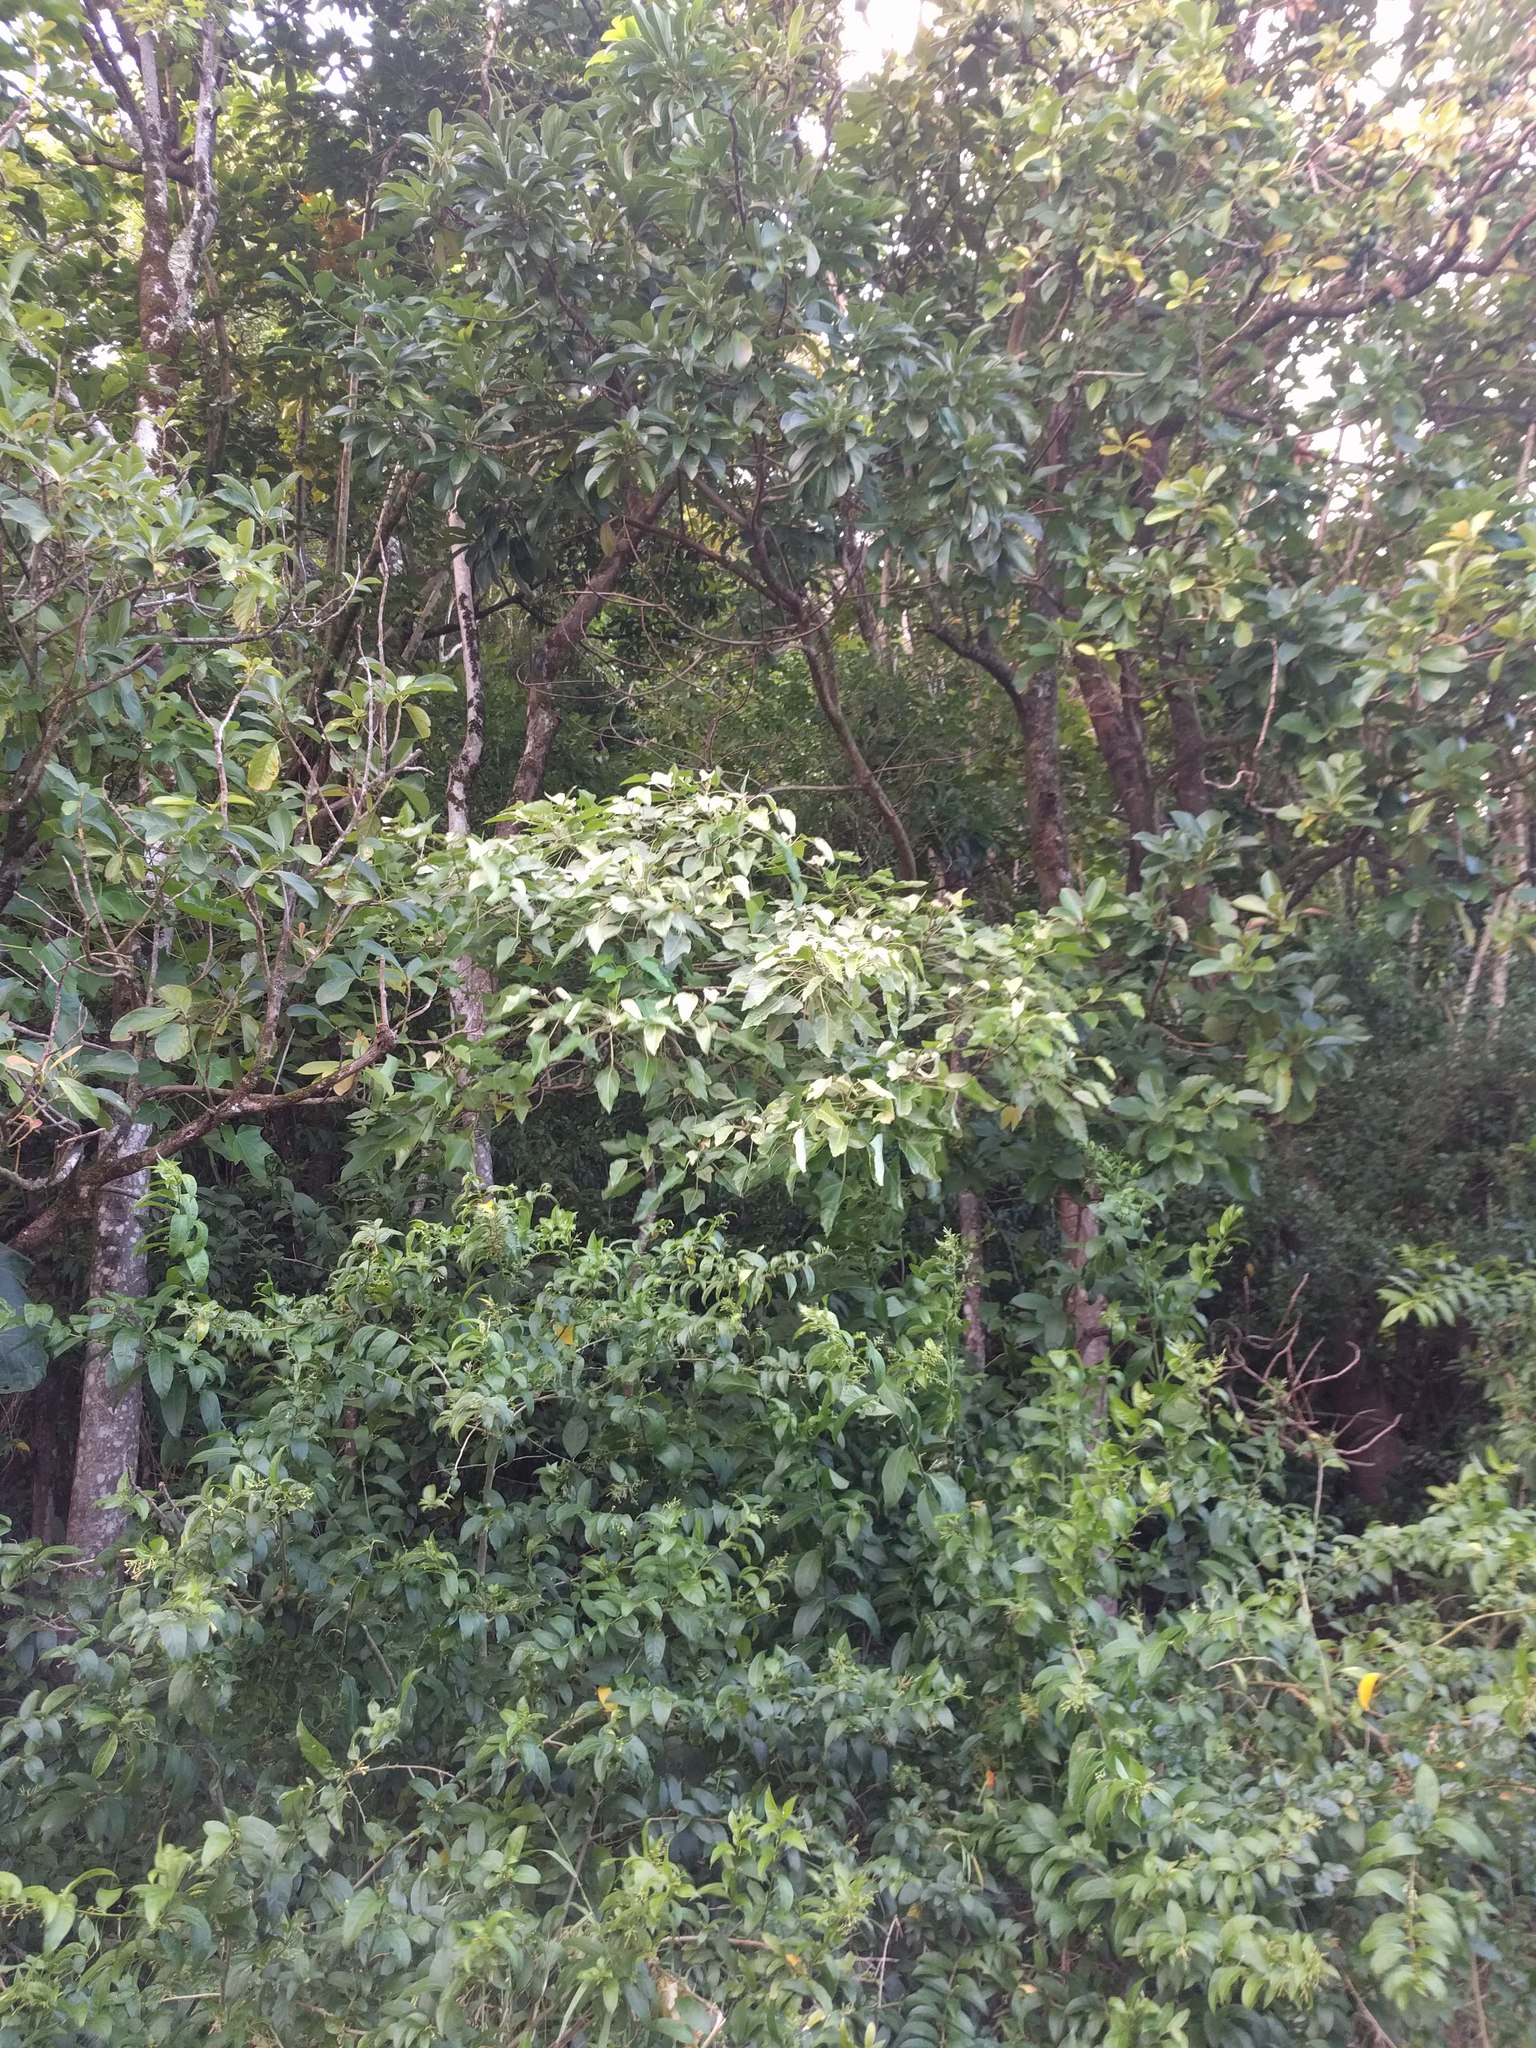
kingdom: Plantae
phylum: Tracheophyta
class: Magnoliopsida
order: Malpighiales
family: Euphorbiaceae
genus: Aleurites
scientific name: Aleurites moluccanus
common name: Candlenut tree
